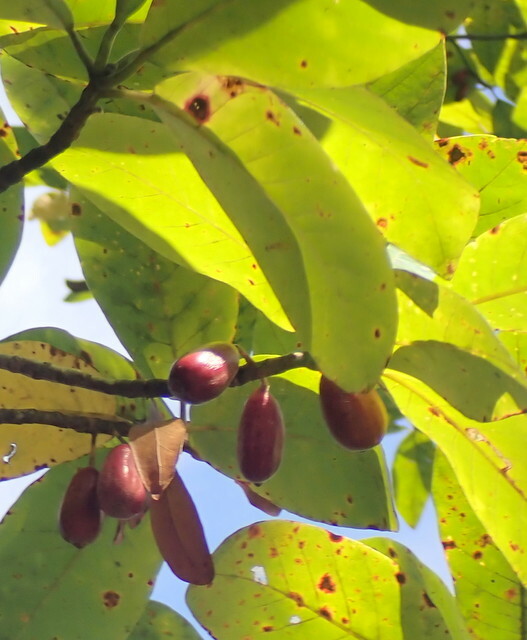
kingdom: Plantae
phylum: Tracheophyta
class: Magnoliopsida
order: Cornales
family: Nyssaceae
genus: Nyssa
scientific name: Nyssa ogeche
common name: Ogeechee tupelo
